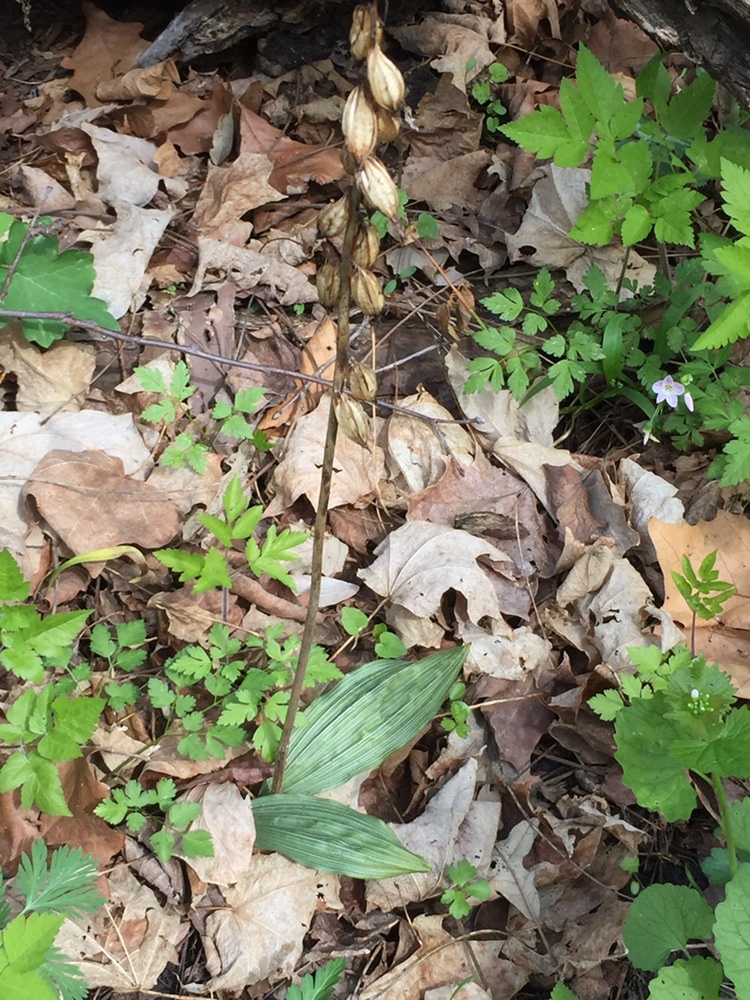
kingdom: Plantae
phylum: Tracheophyta
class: Liliopsida
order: Asparagales
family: Orchidaceae
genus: Aplectrum
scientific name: Aplectrum hyemale
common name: Adam-and-eve
